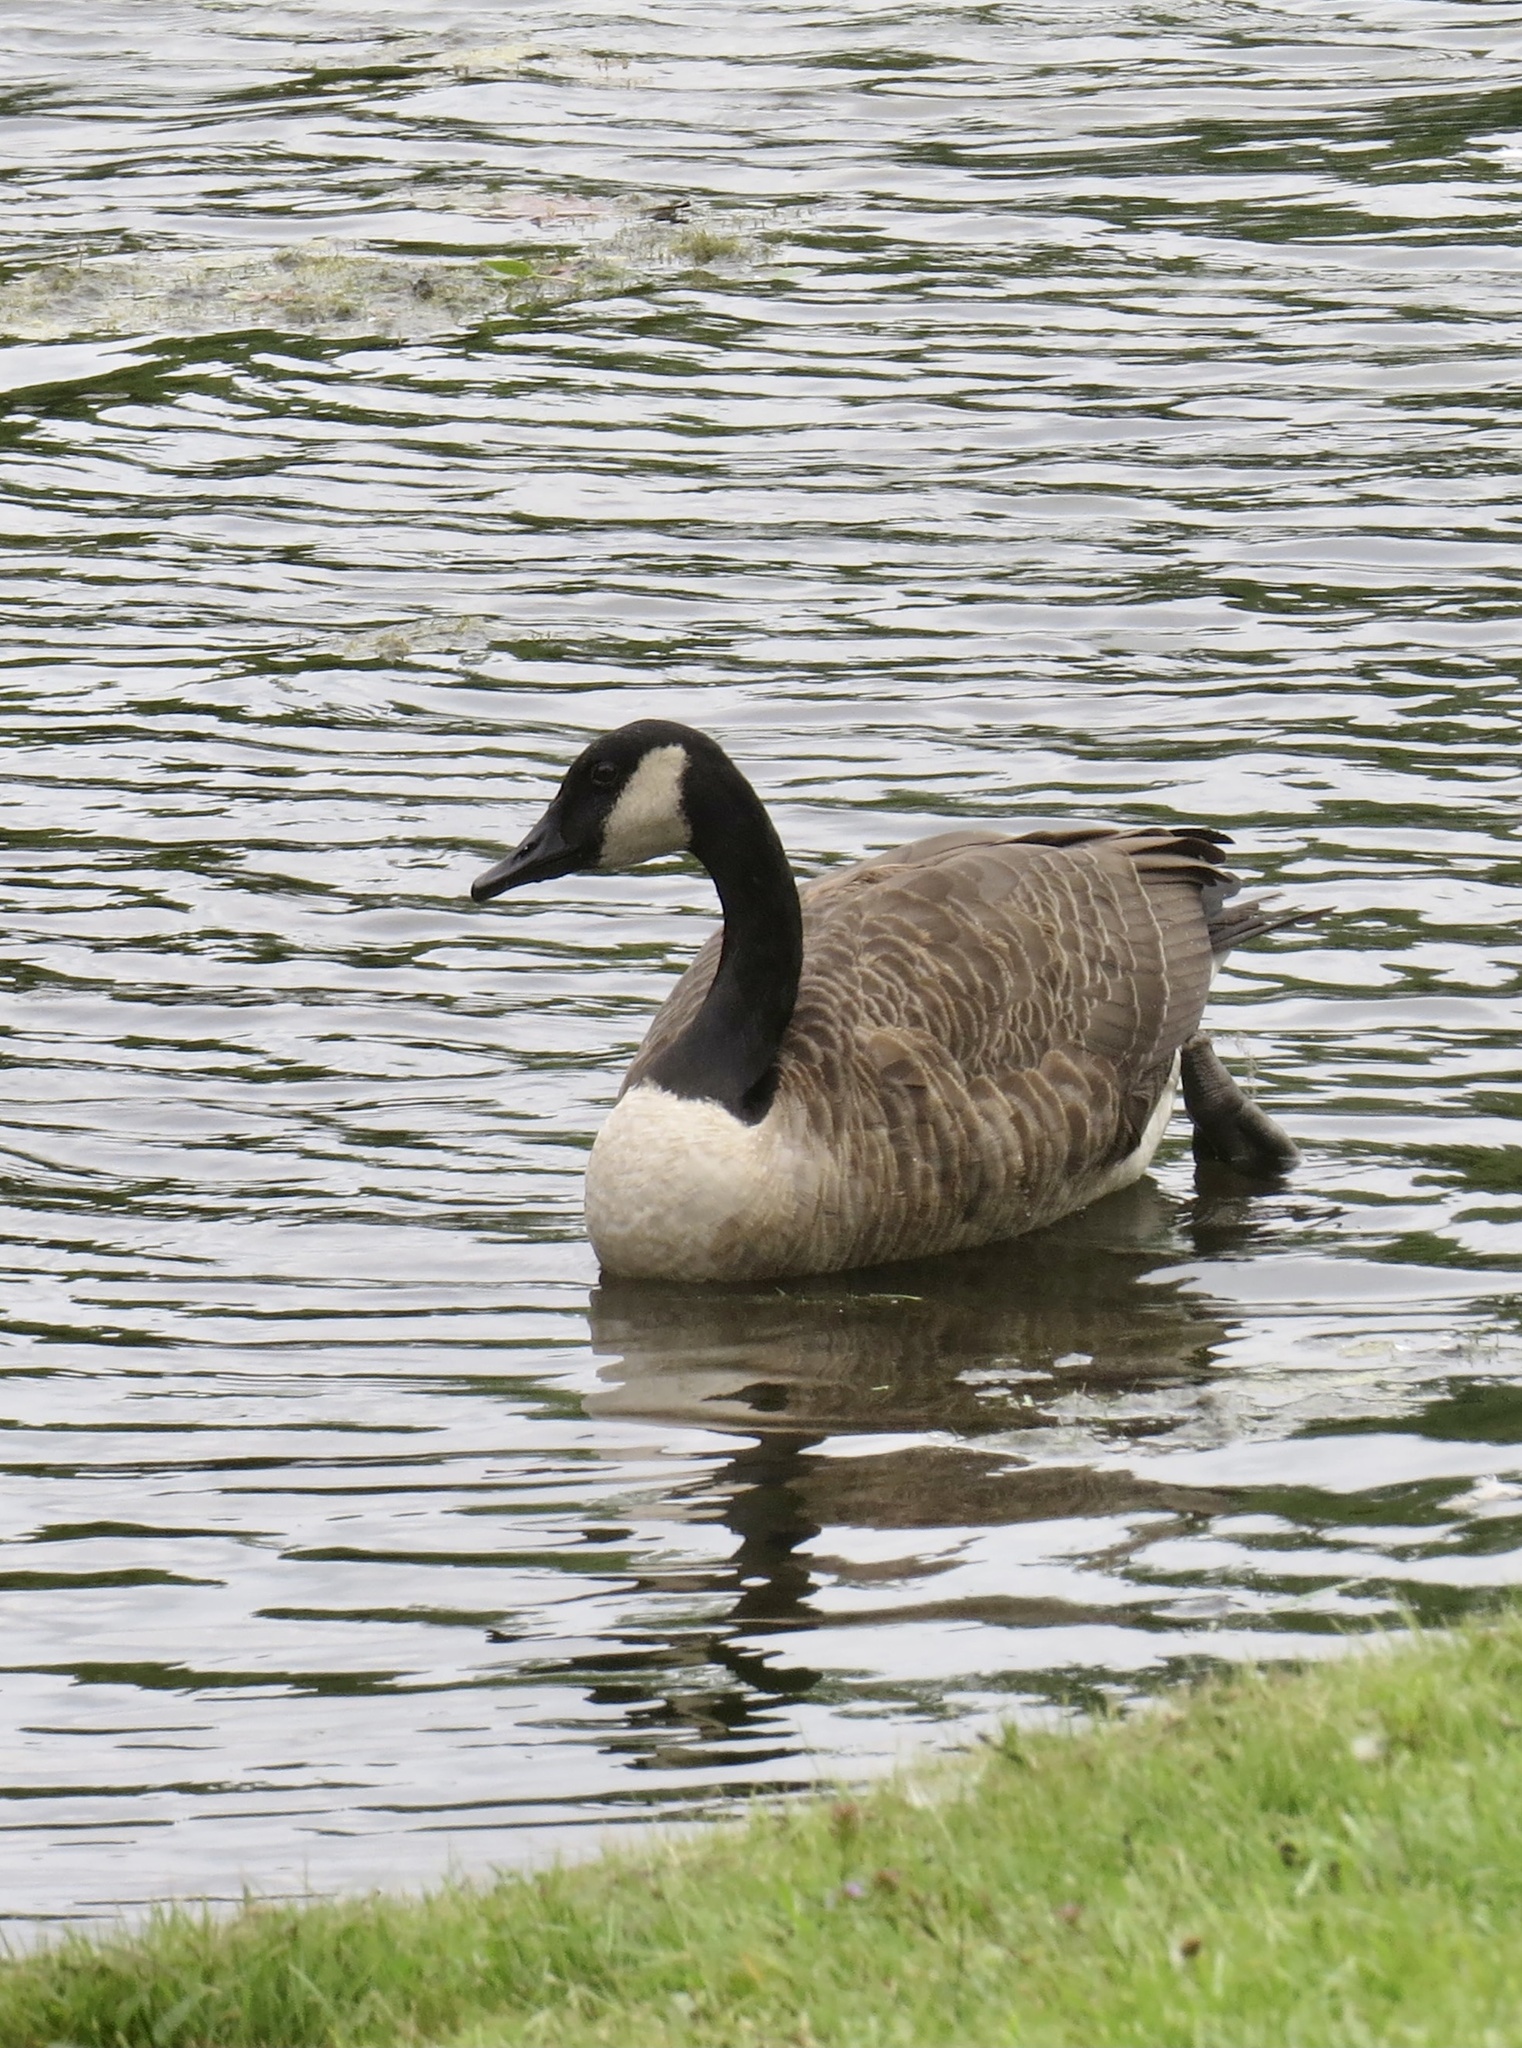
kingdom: Animalia
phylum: Chordata
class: Aves
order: Anseriformes
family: Anatidae
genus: Branta
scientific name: Branta canadensis
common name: Canada goose
